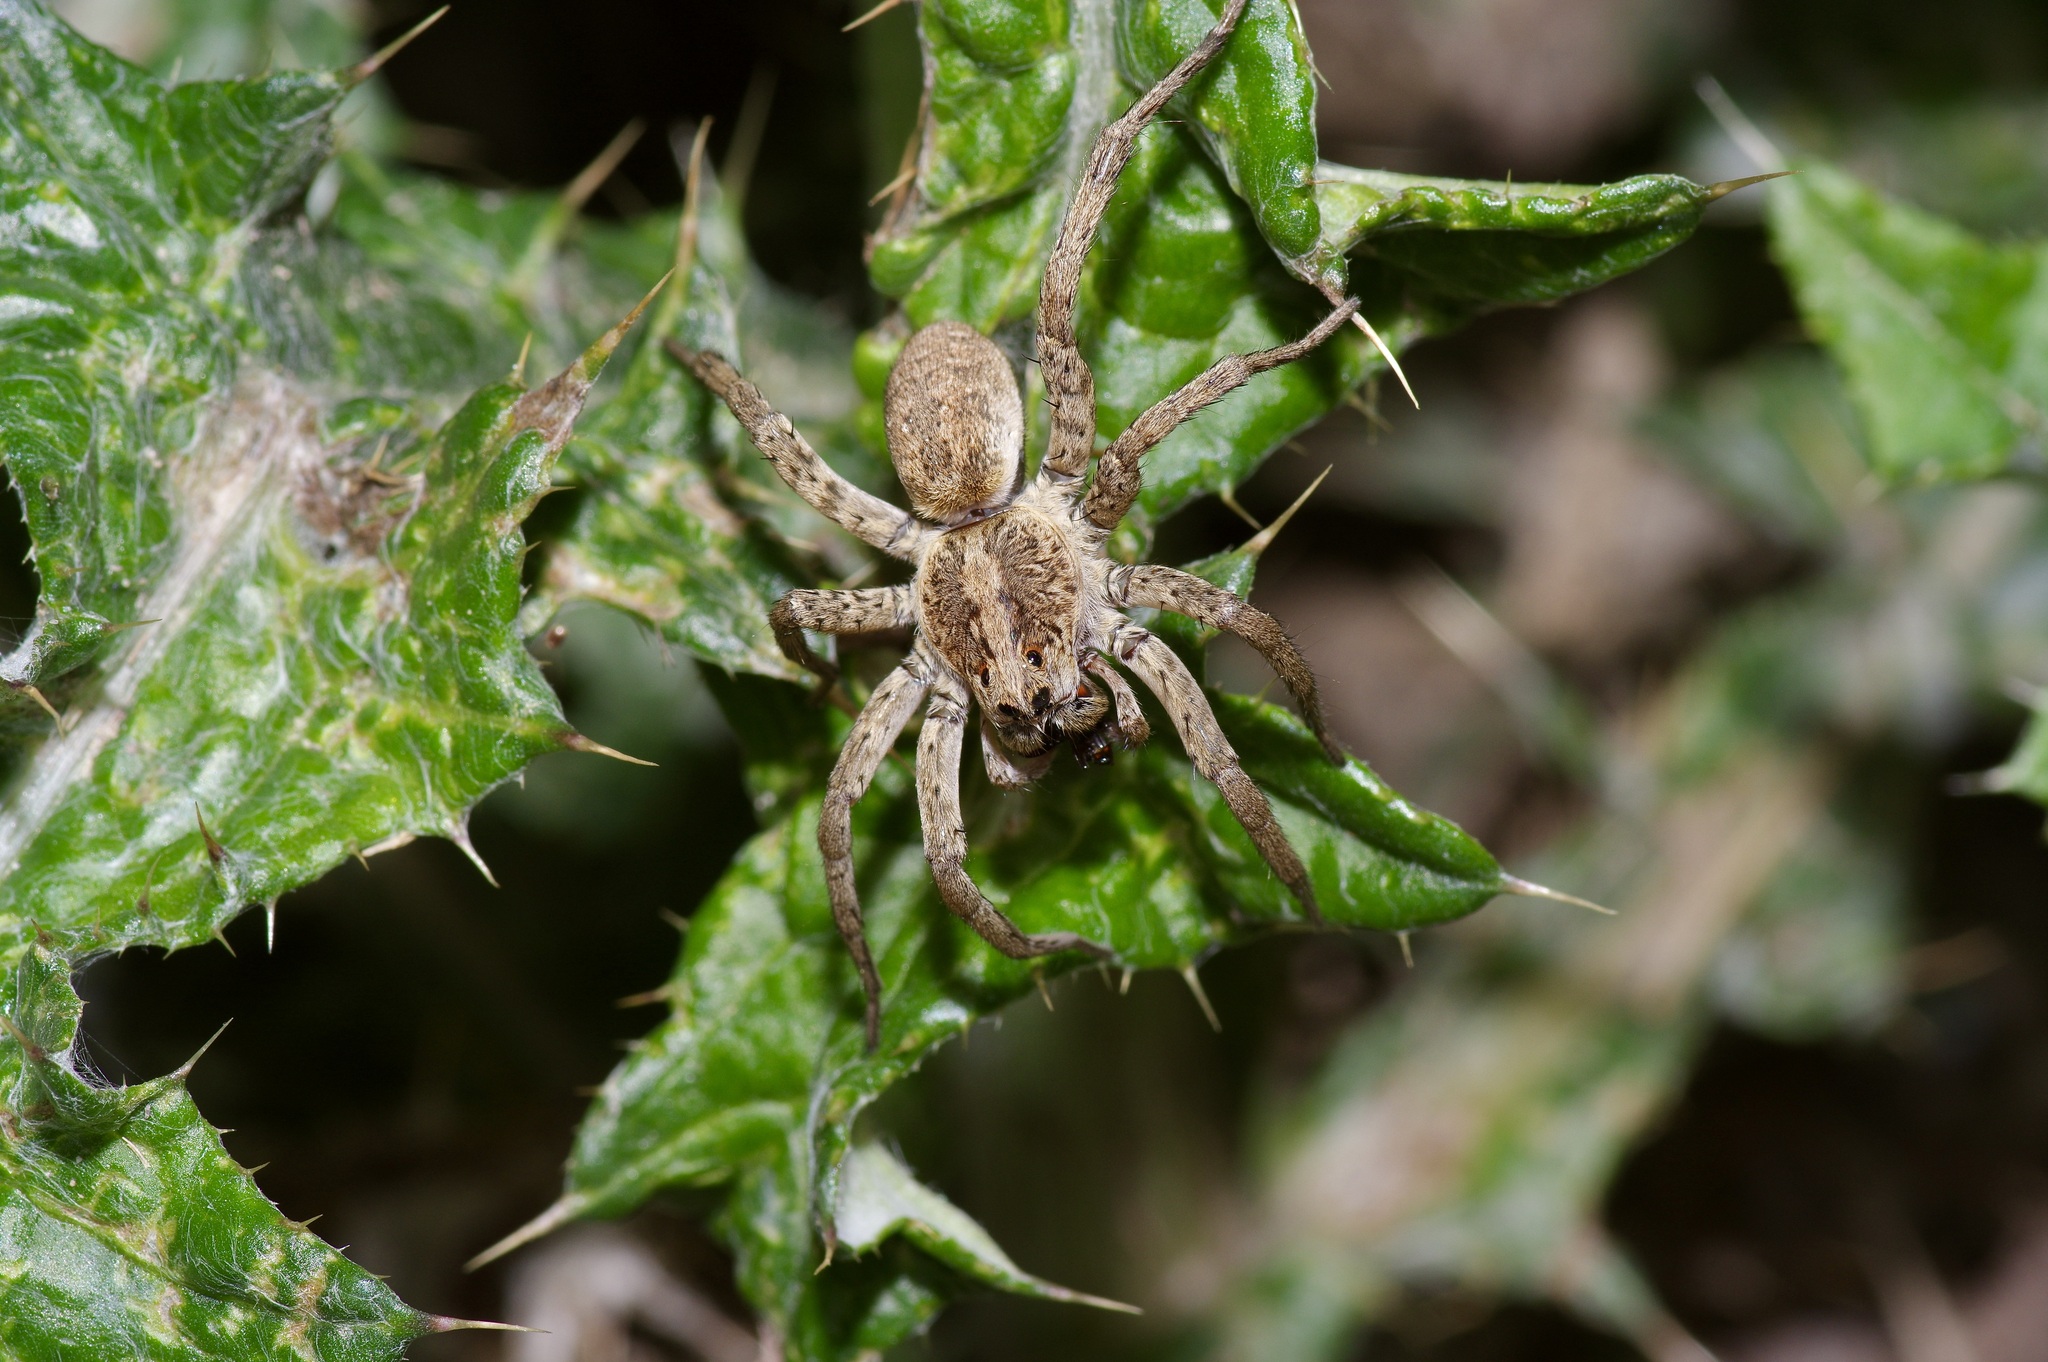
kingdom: Animalia
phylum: Arthropoda
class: Arachnida
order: Araneae
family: Lycosidae
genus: Hogna
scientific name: Hogna antelucana
